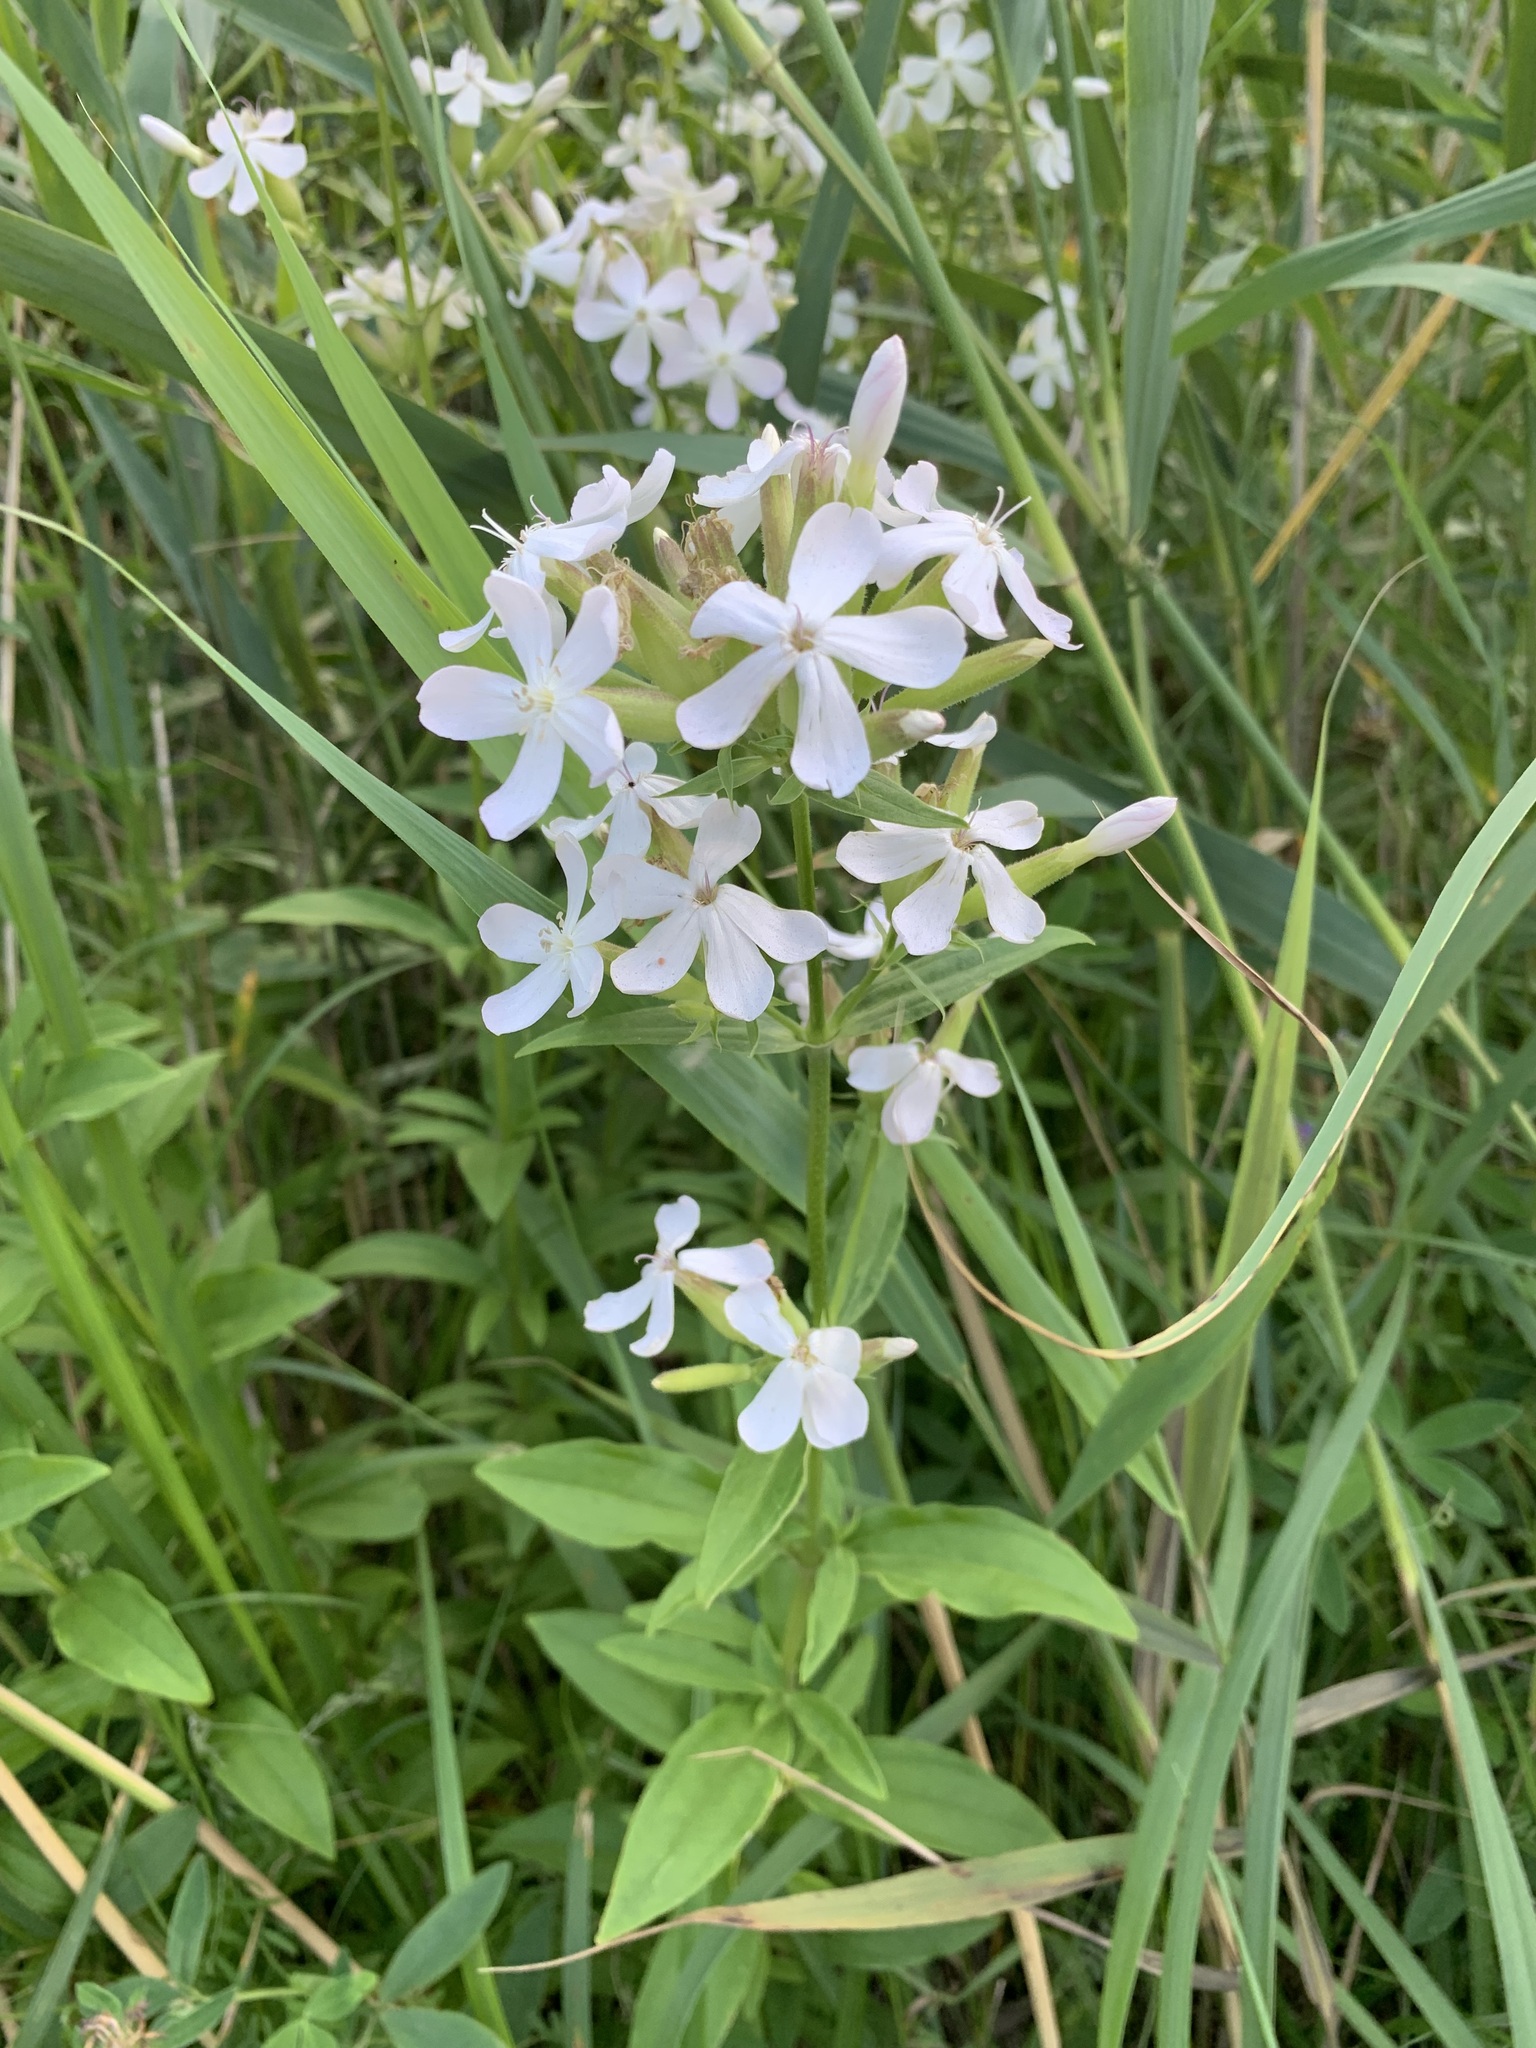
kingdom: Plantae
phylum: Tracheophyta
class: Magnoliopsida
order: Caryophyllales
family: Caryophyllaceae
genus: Saponaria
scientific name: Saponaria officinalis
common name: Soapwort
